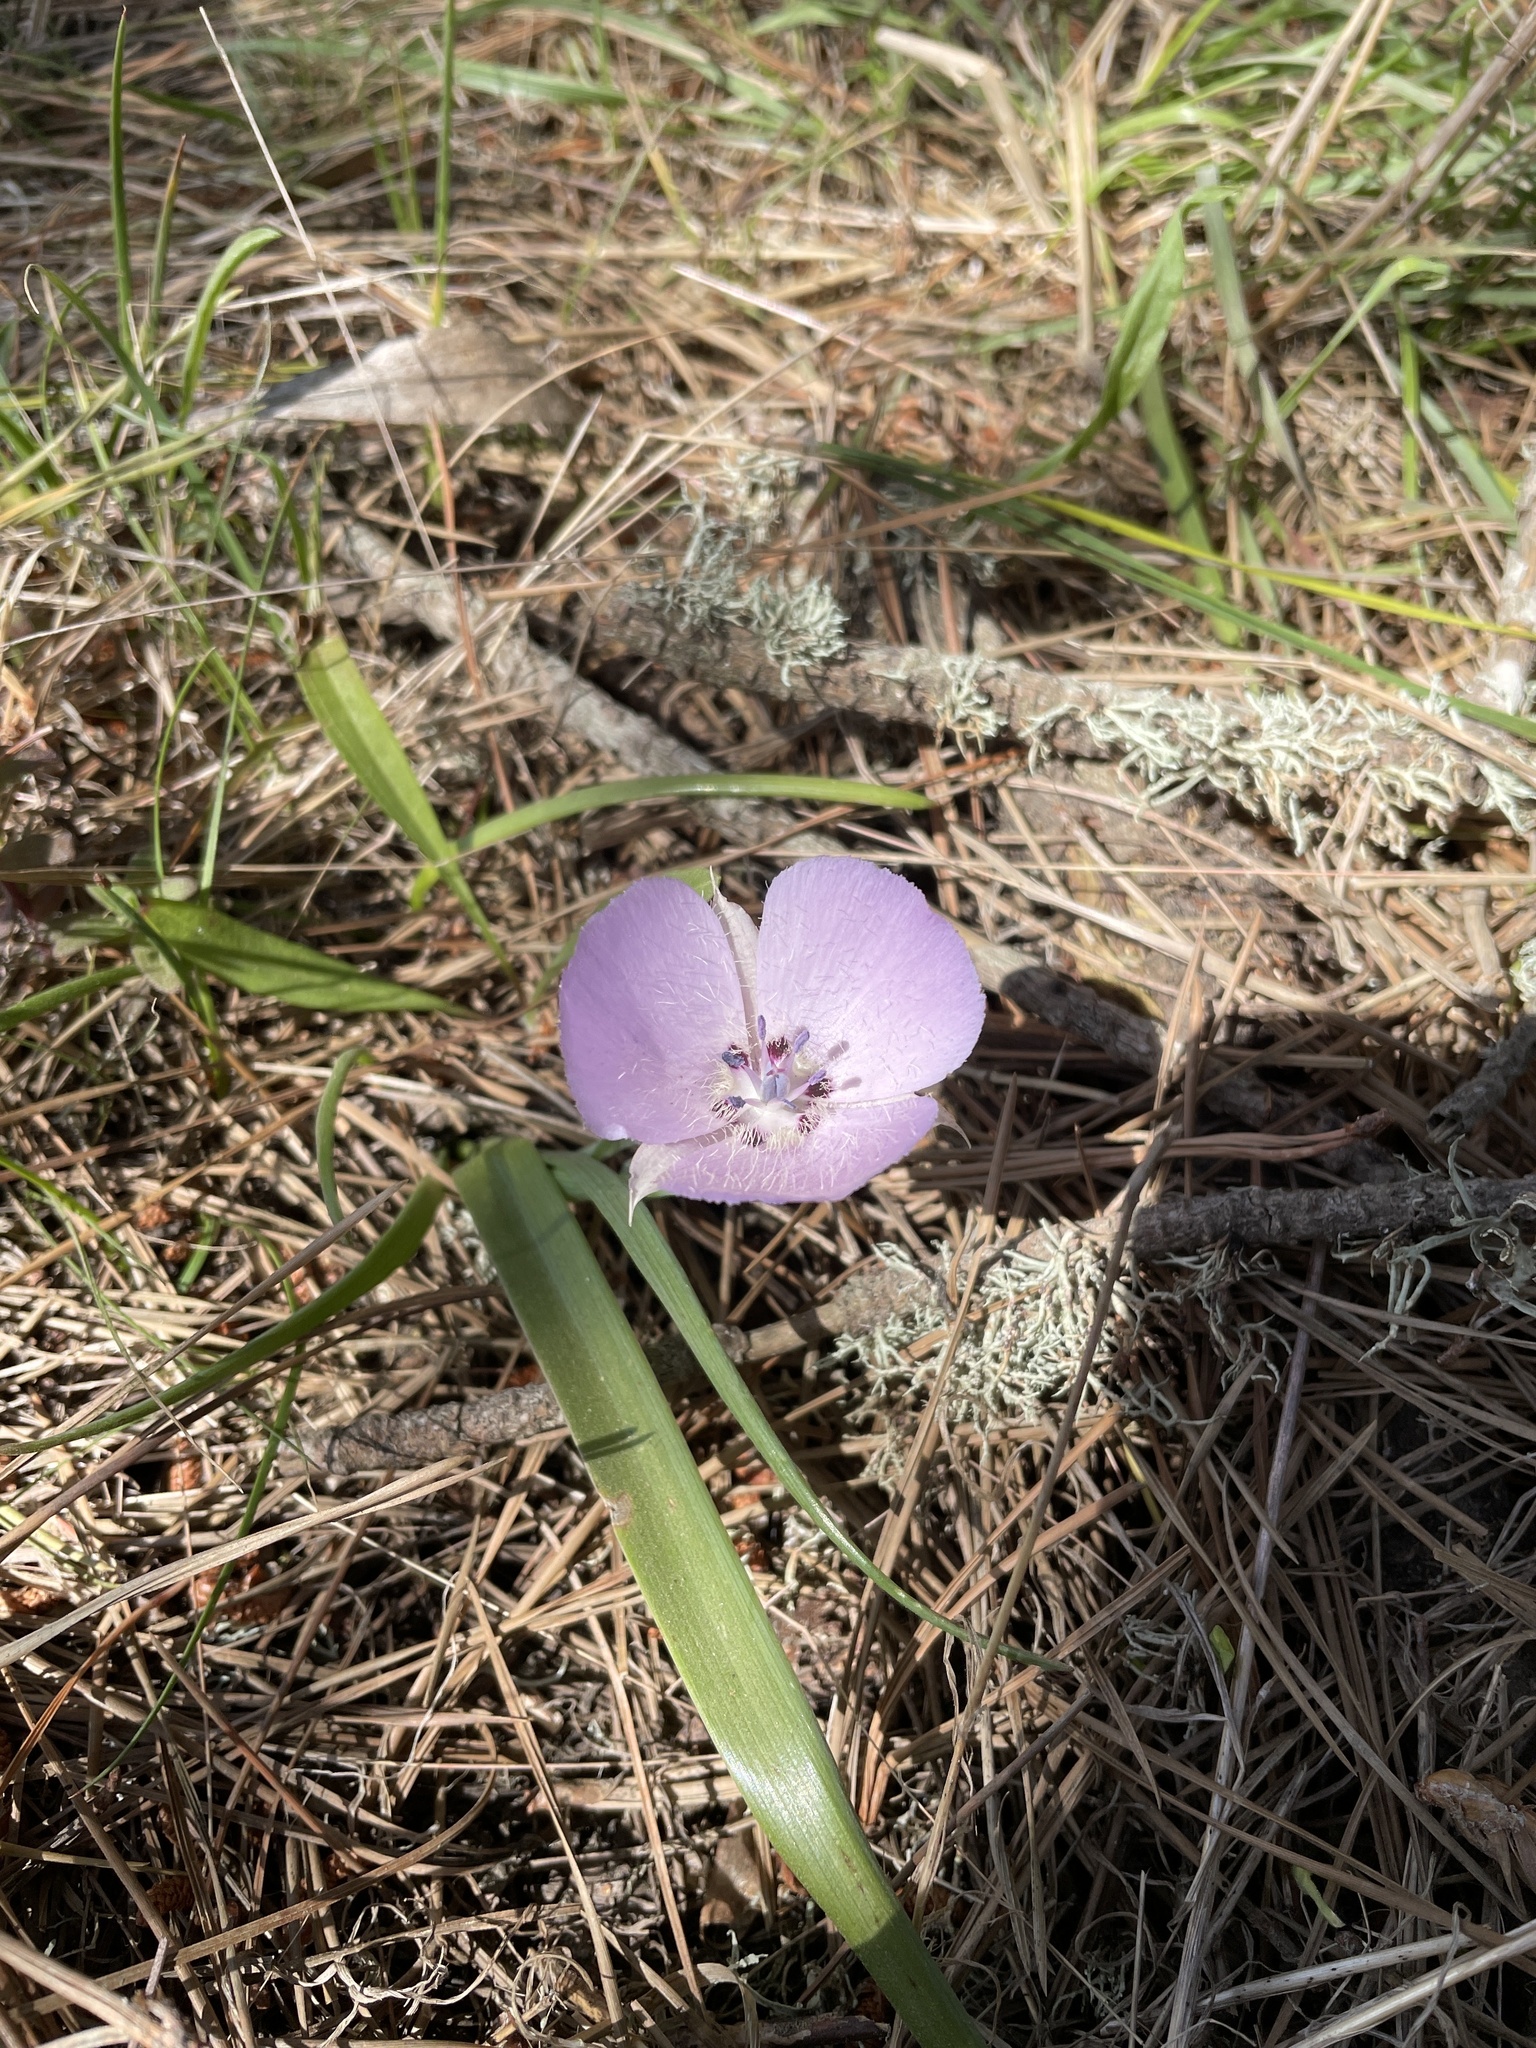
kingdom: Plantae
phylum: Tracheophyta
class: Liliopsida
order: Liliales
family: Liliaceae
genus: Calochortus
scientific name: Calochortus uniflorus
